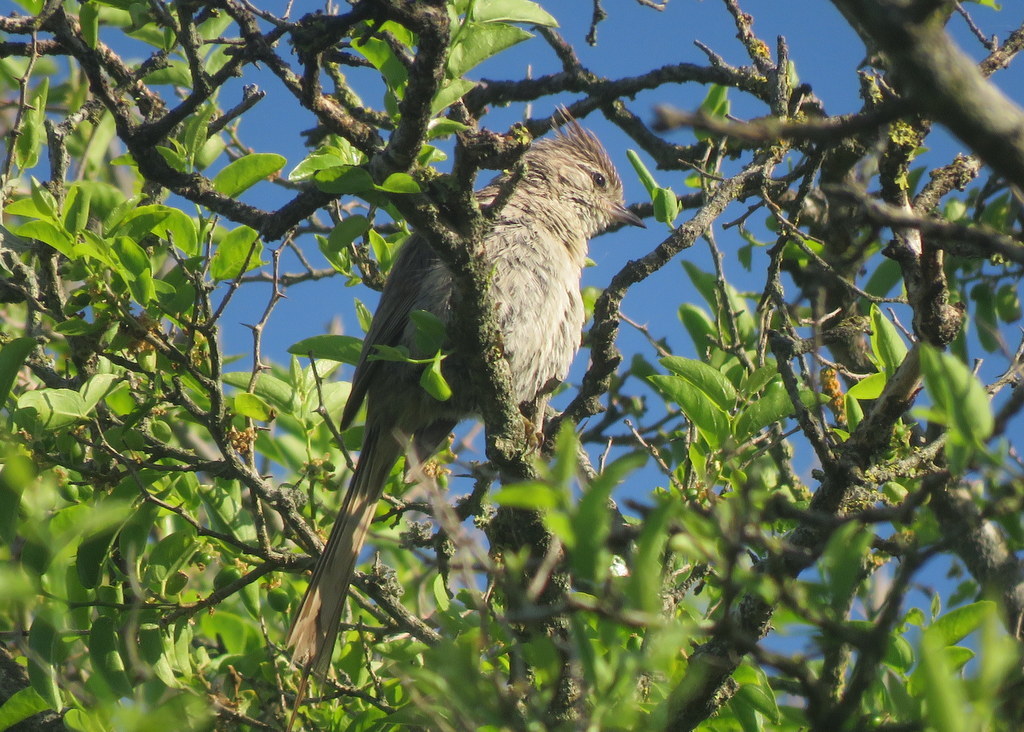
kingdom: Animalia
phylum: Chordata
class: Aves
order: Passeriformes
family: Furnariidae
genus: Leptasthenura
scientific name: Leptasthenura platensis
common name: Tufted tit-spinetail
